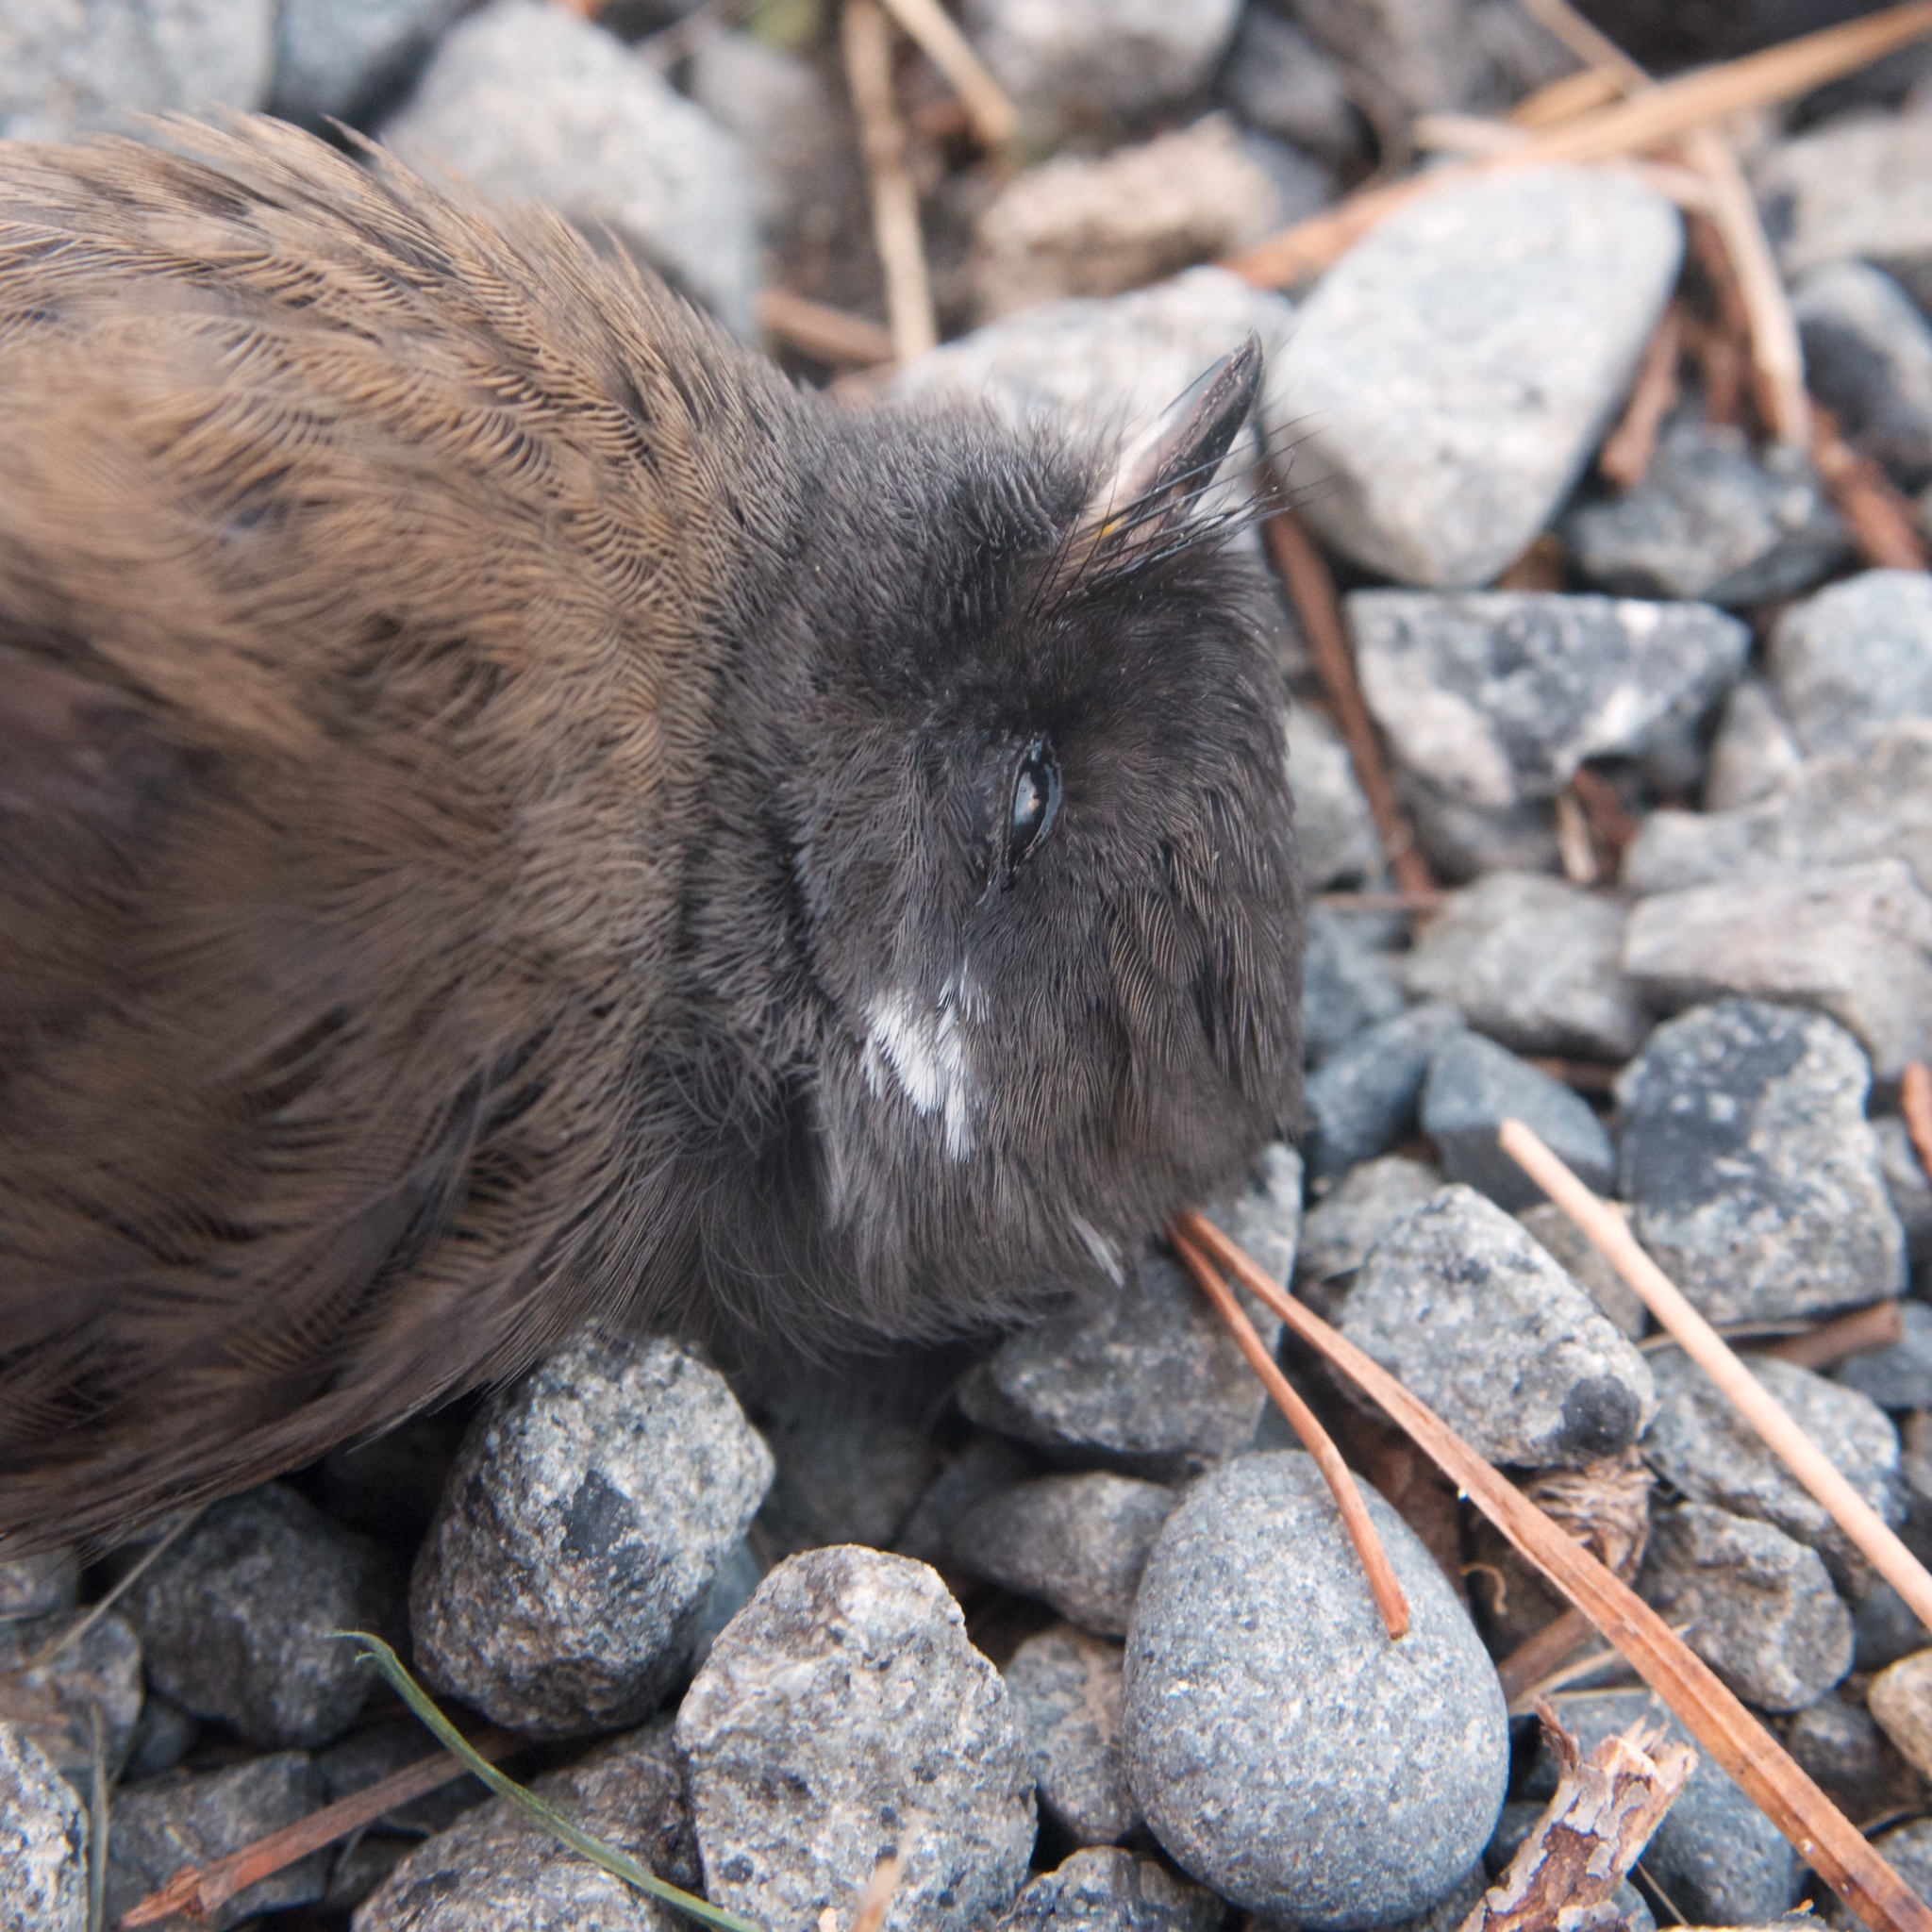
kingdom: Animalia
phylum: Chordata
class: Aves
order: Passeriformes
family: Rhipiduridae
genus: Rhipidura
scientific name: Rhipidura fuliginosa
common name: New zealand fantail
